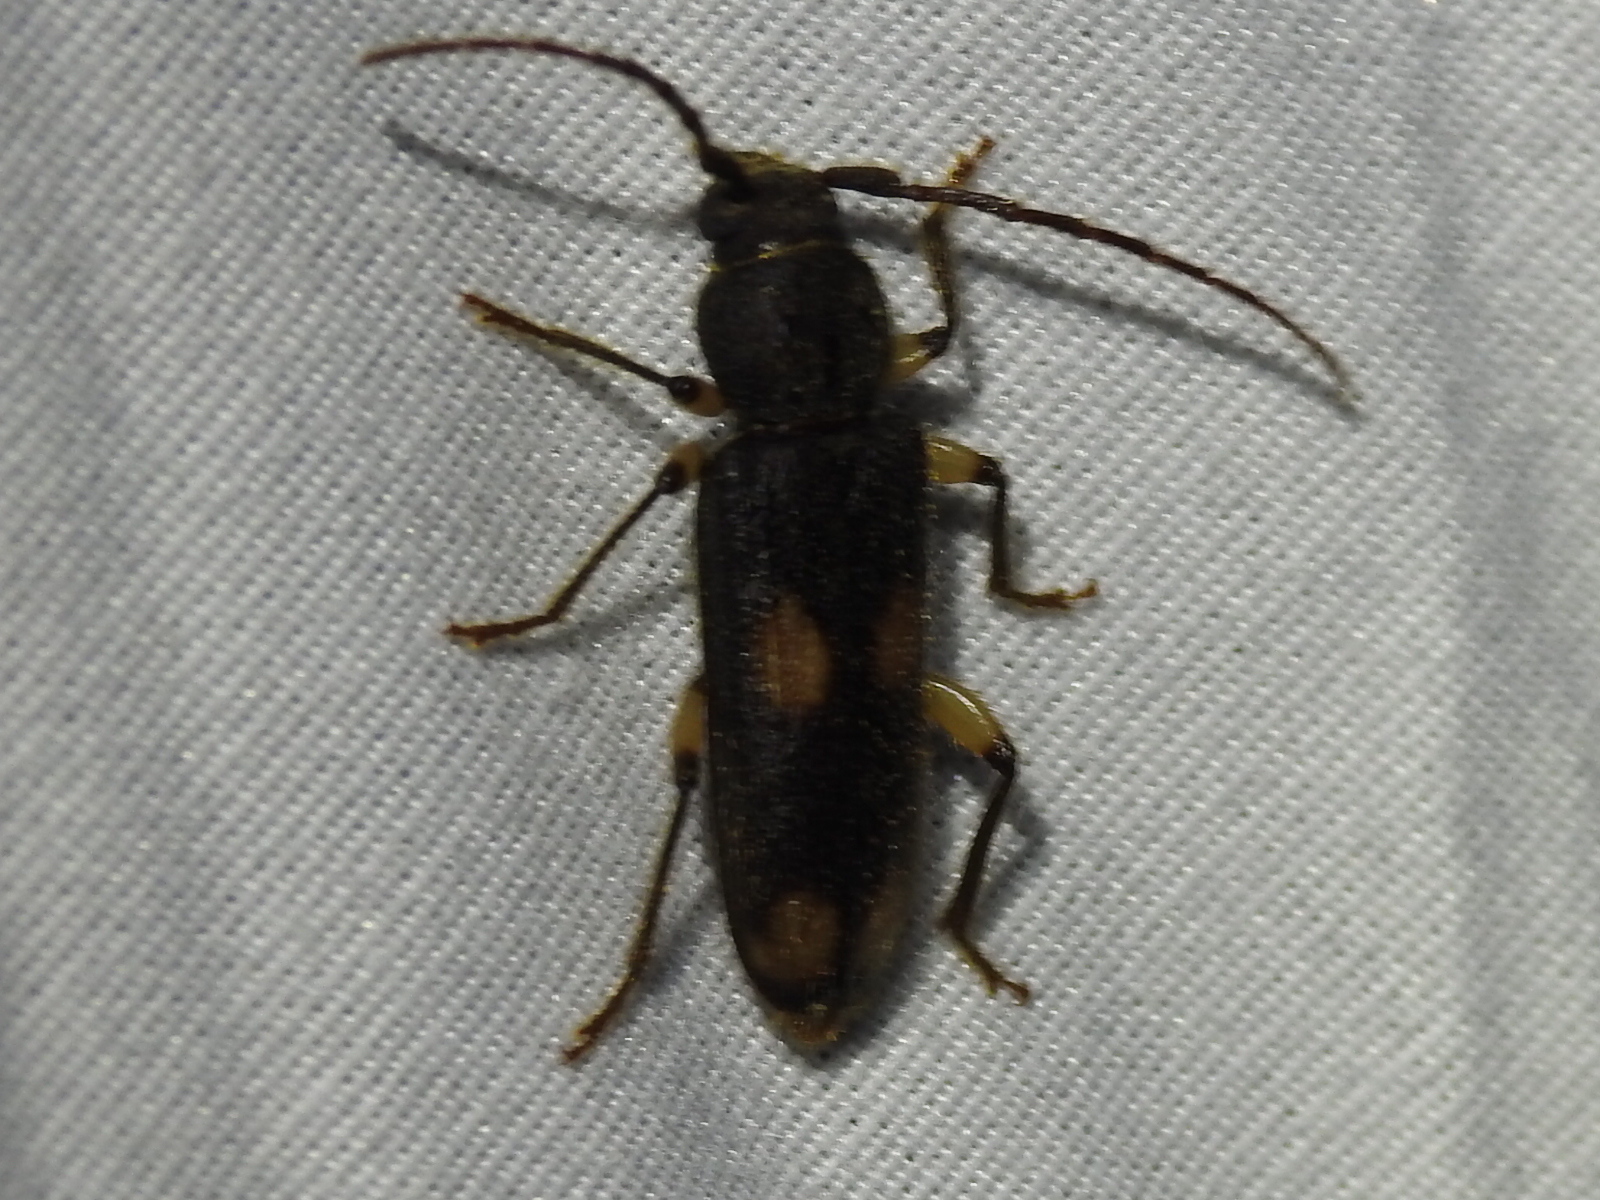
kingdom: Animalia
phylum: Arthropoda
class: Insecta
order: Coleoptera
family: Cerambycidae
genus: Tylonotus
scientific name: Tylonotus bimaculatus
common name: Ash and privet borer
